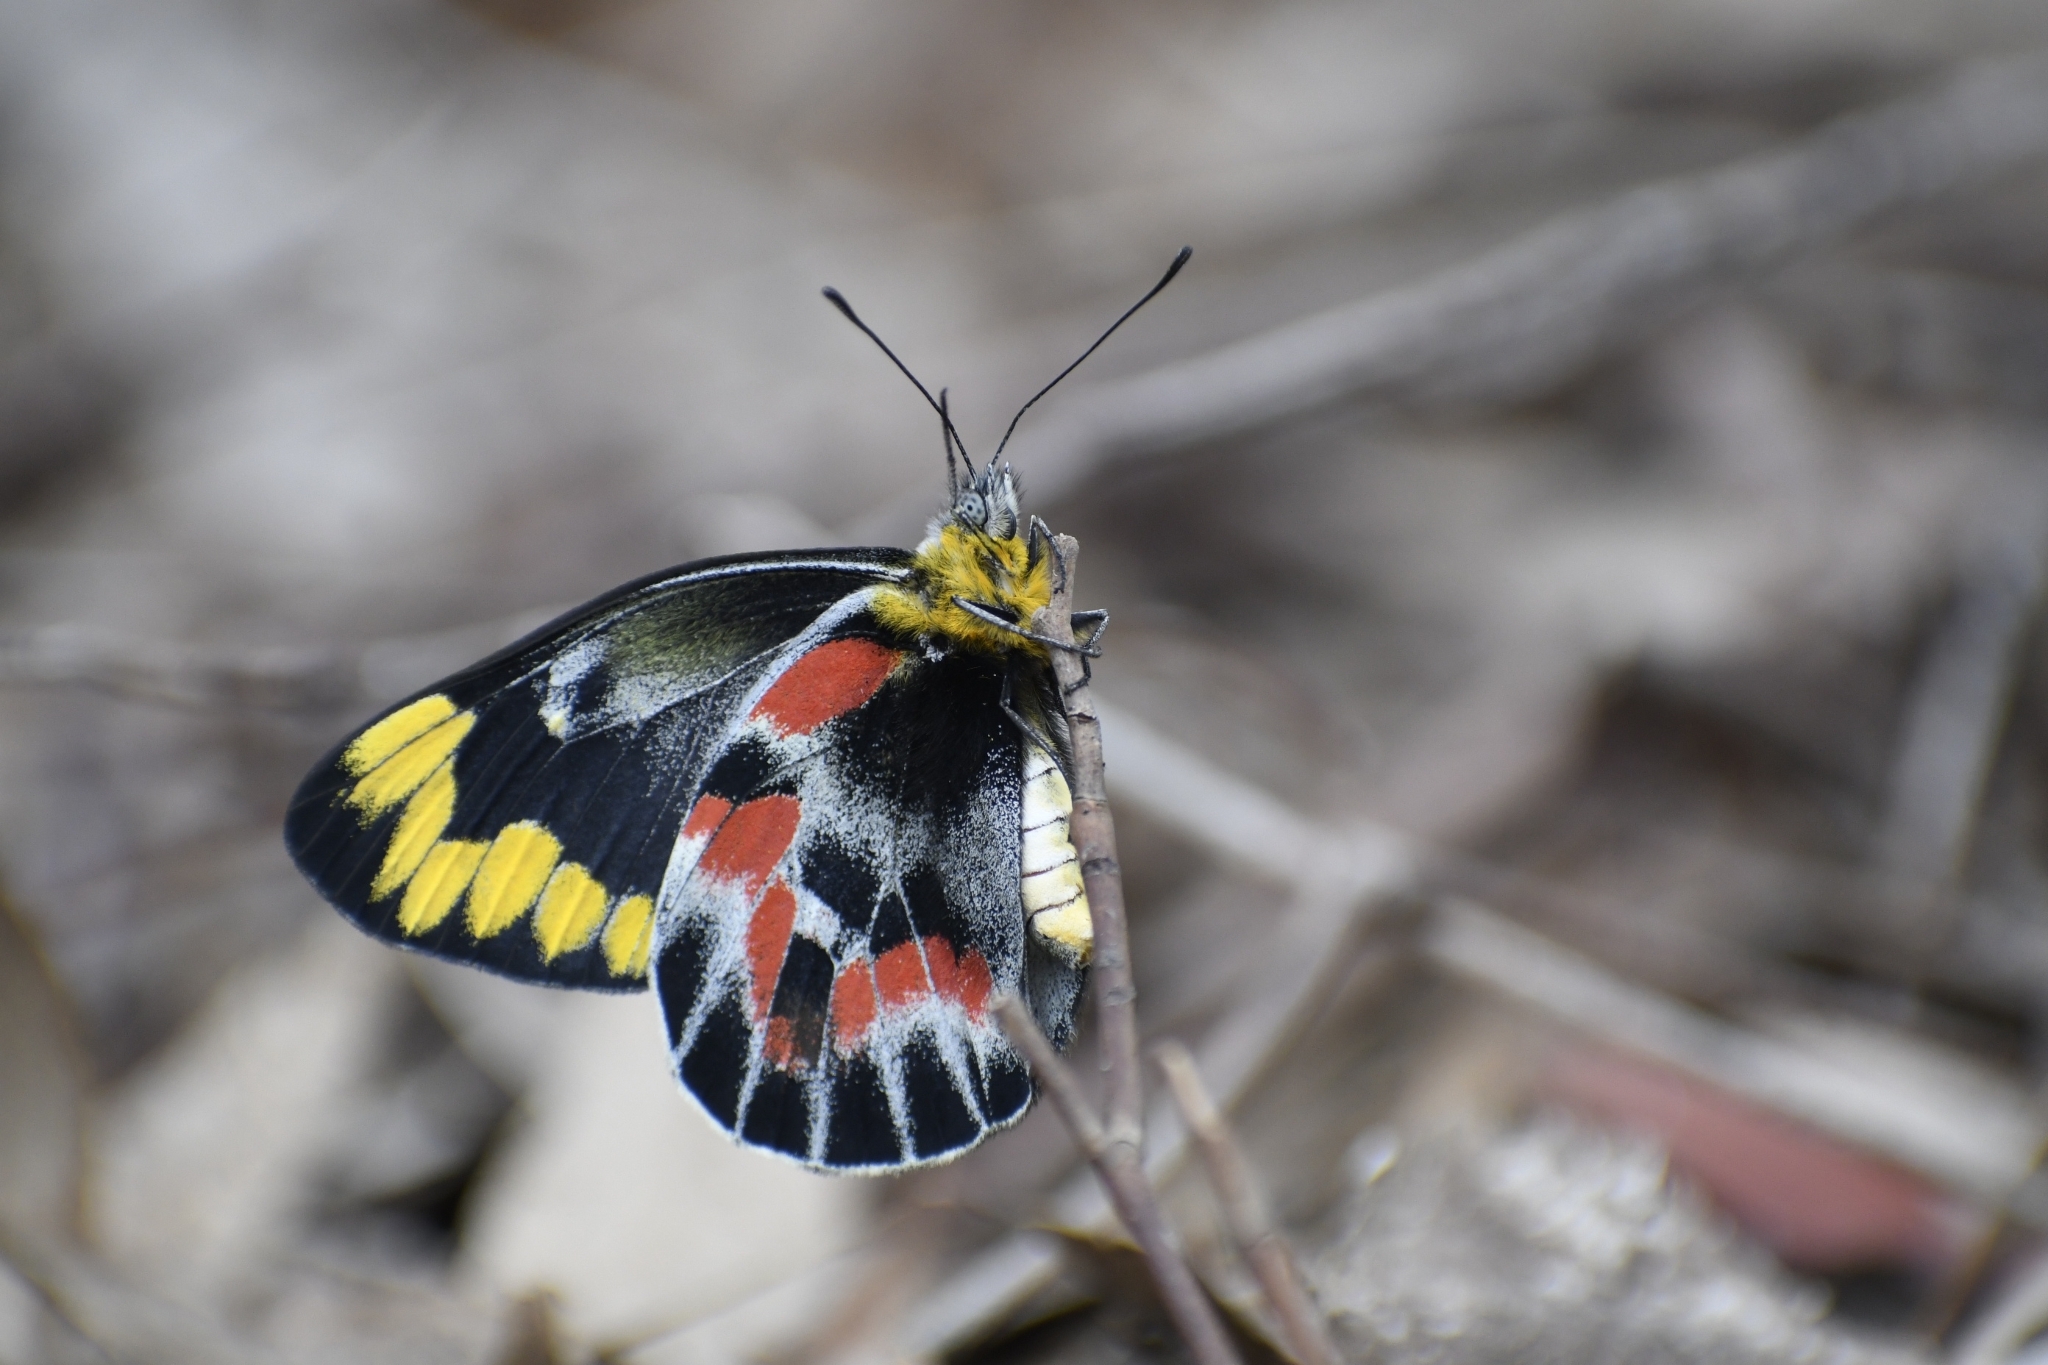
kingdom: Animalia
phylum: Arthropoda
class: Insecta
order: Lepidoptera
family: Pieridae
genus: Delias
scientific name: Delias harpalyce
